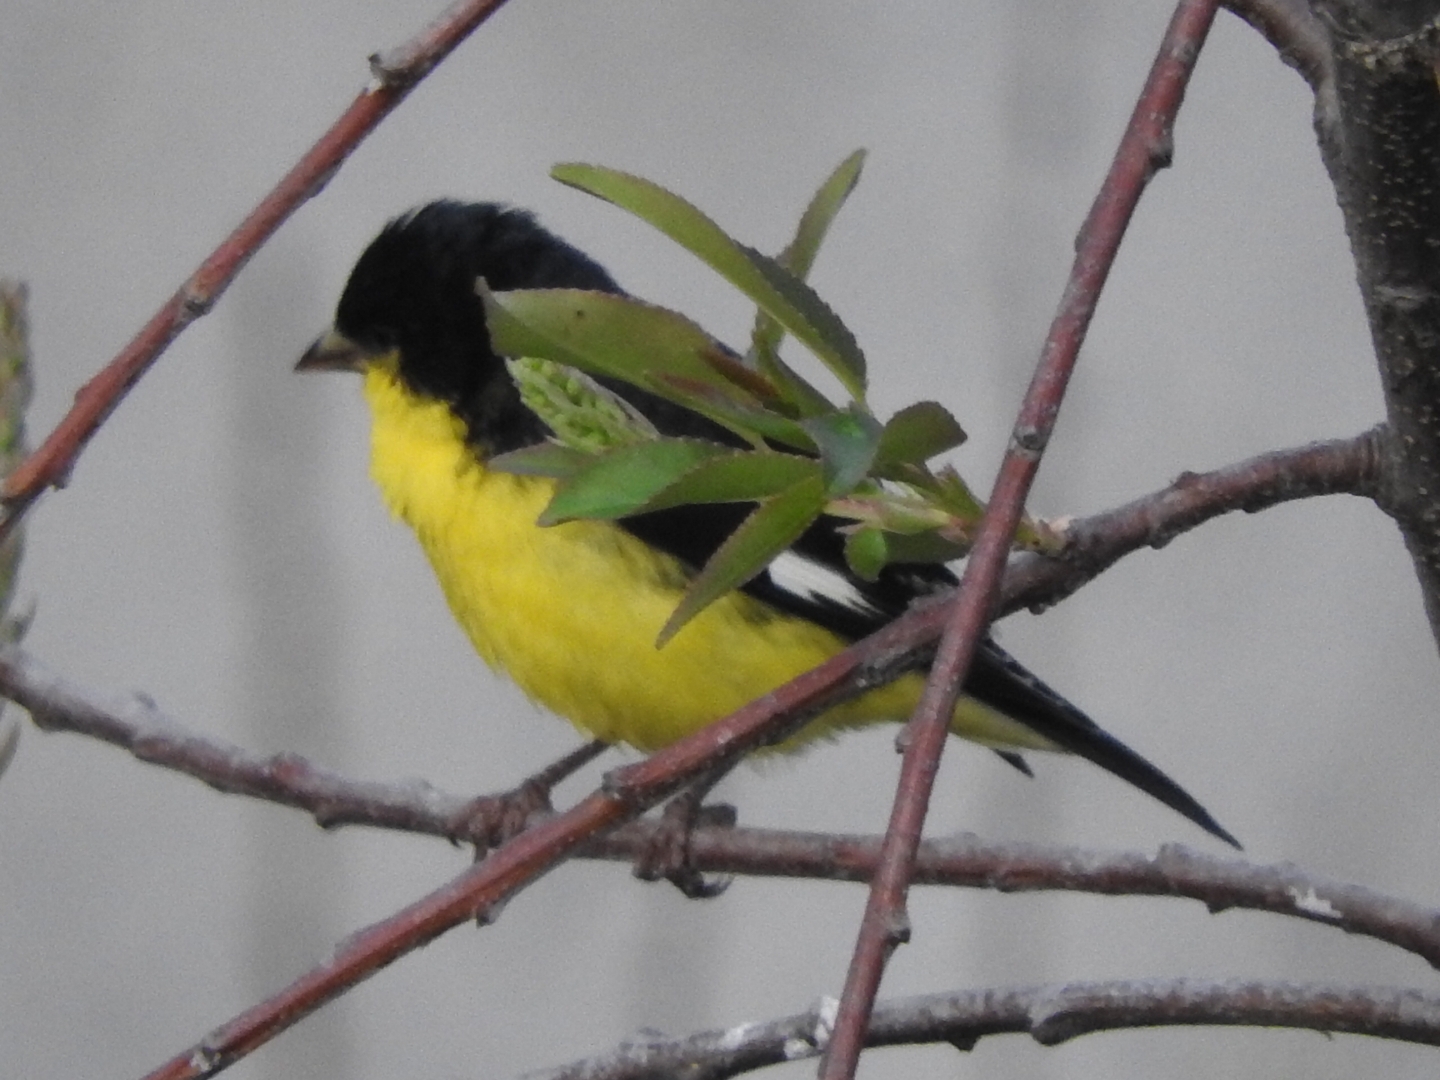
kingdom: Animalia
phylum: Chordata
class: Aves
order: Passeriformes
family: Fringillidae
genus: Spinus
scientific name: Spinus psaltria
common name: Lesser goldfinch
